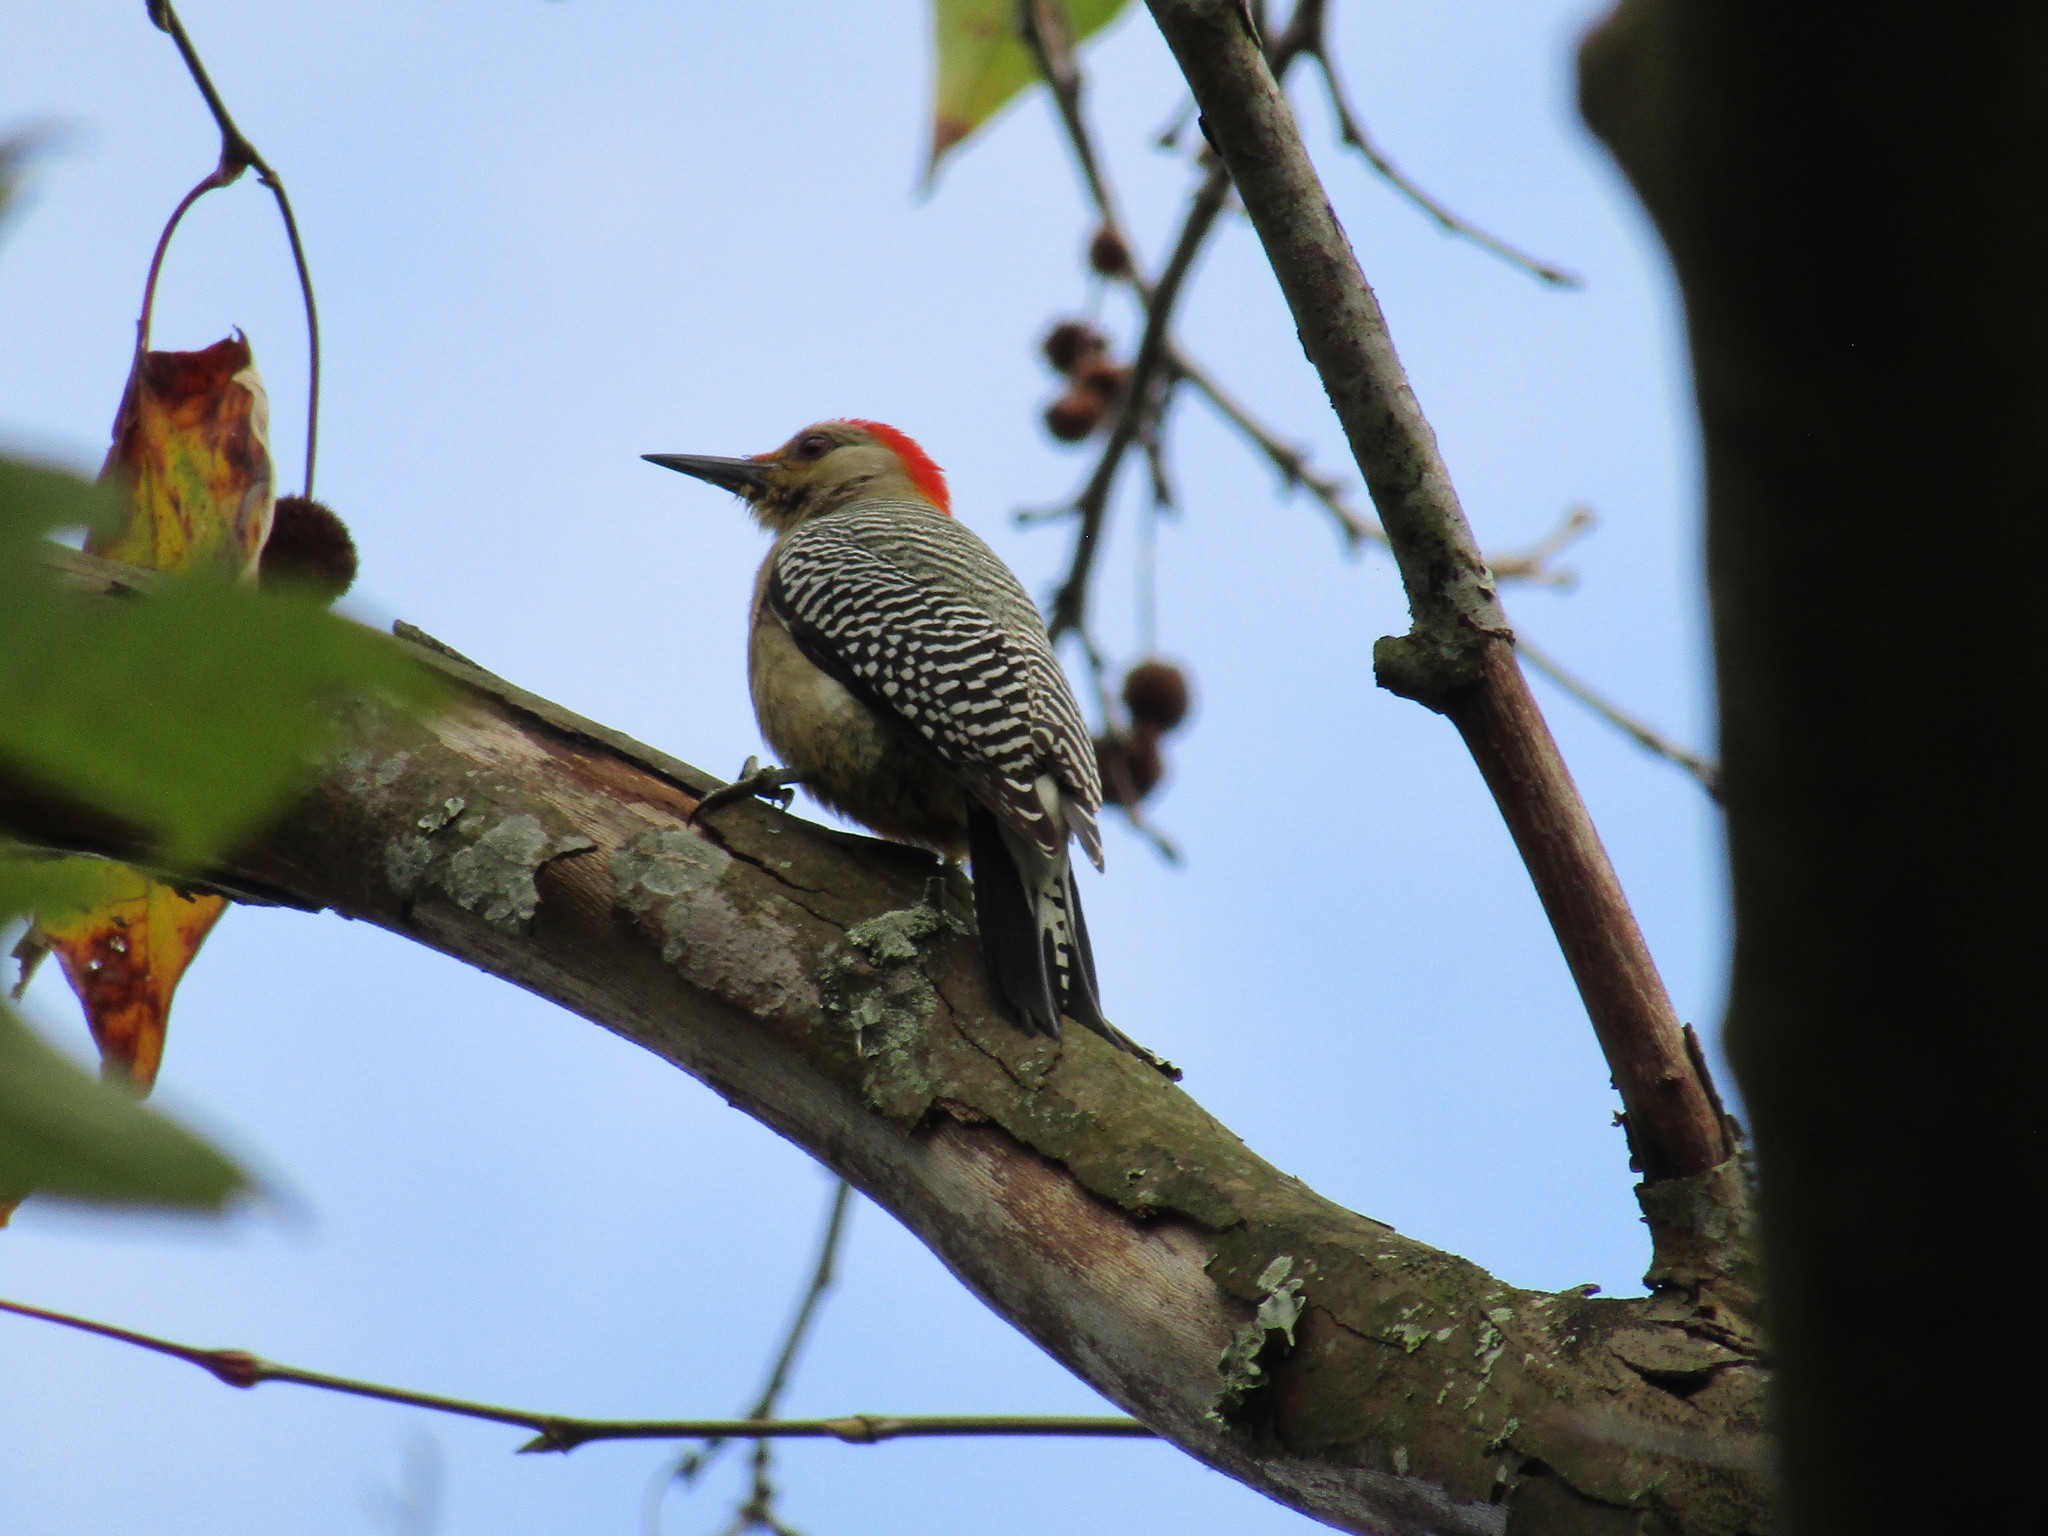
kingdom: Animalia
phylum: Chordata
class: Aves
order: Piciformes
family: Picidae
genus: Melanerpes
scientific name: Melanerpes aurifrons
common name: Golden-fronted woodpecker
